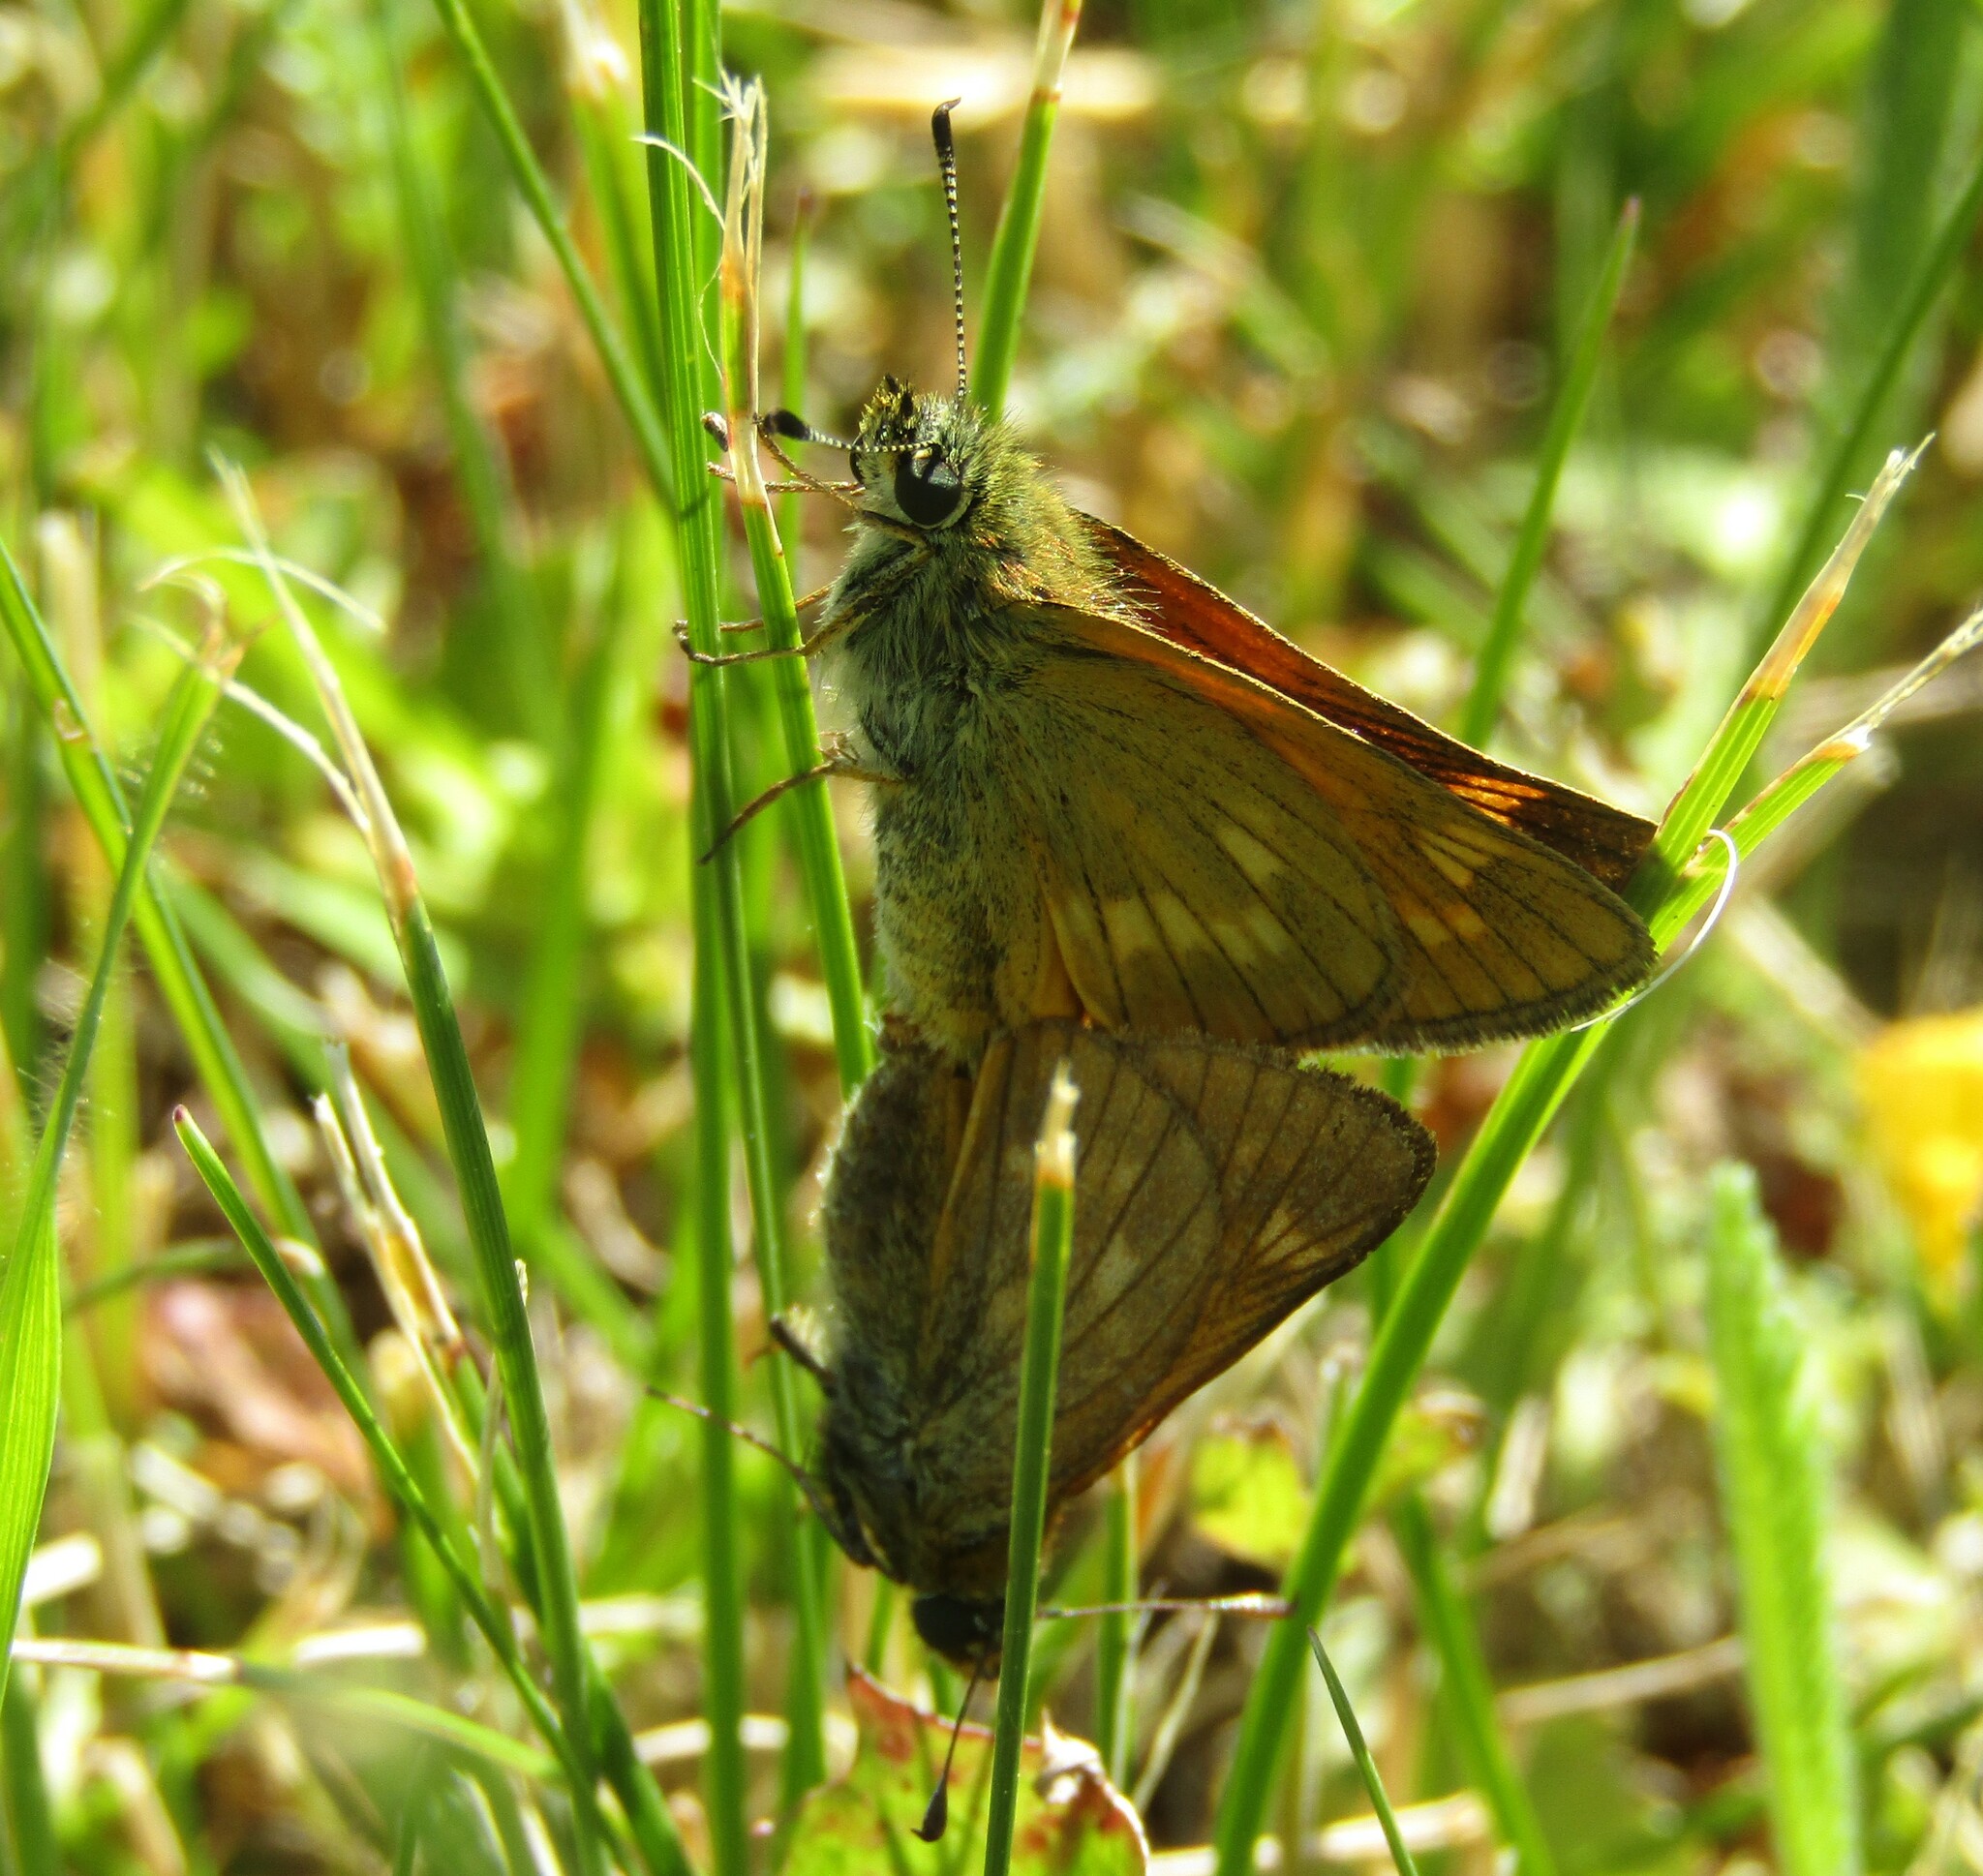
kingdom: Animalia
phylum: Arthropoda
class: Insecta
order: Lepidoptera
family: Hesperiidae
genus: Ochlodes
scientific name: Ochlodes venata
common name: Large skipper
